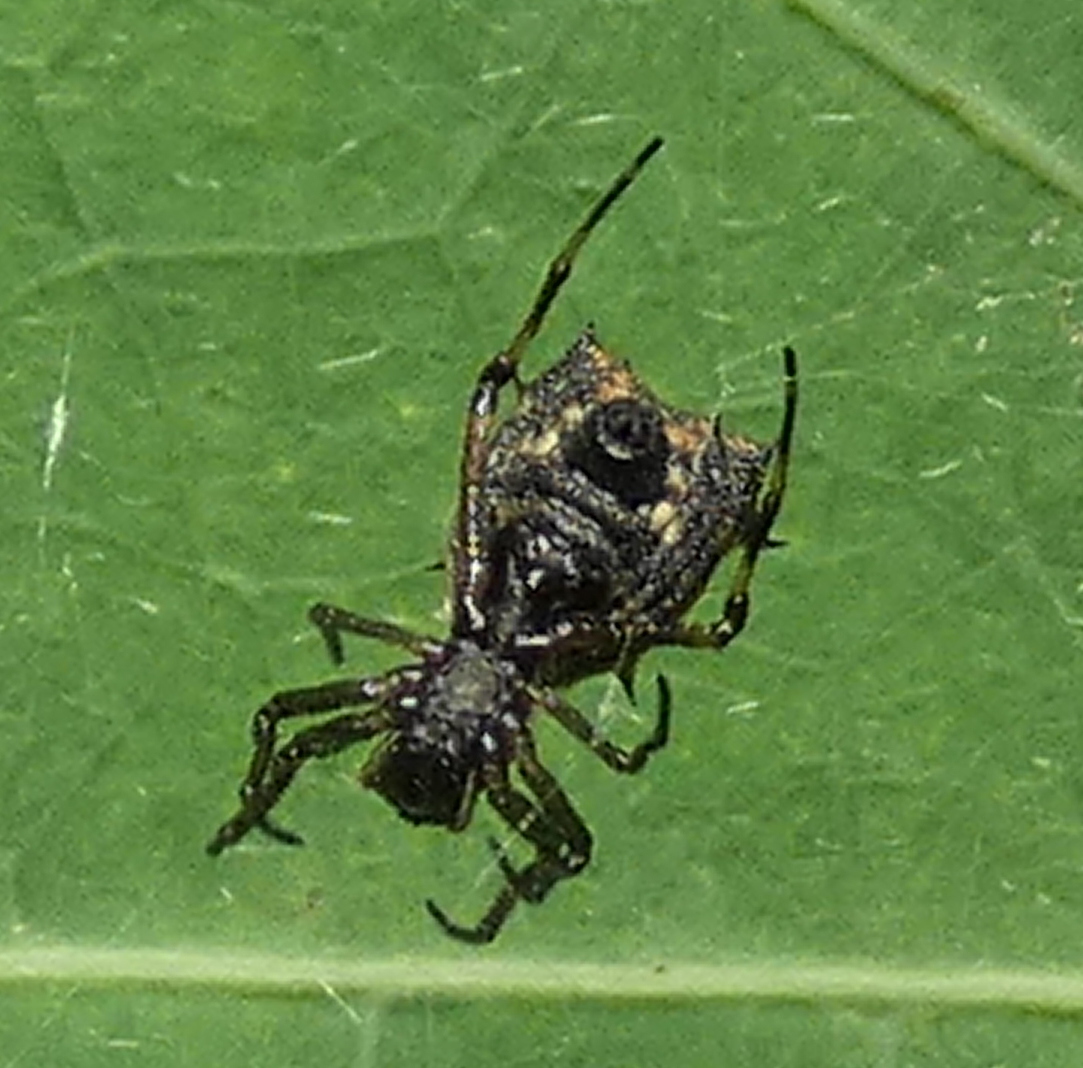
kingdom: Animalia
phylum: Arthropoda
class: Arachnida
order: Araneae
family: Araneidae
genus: Micrathena
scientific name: Micrathena picta
